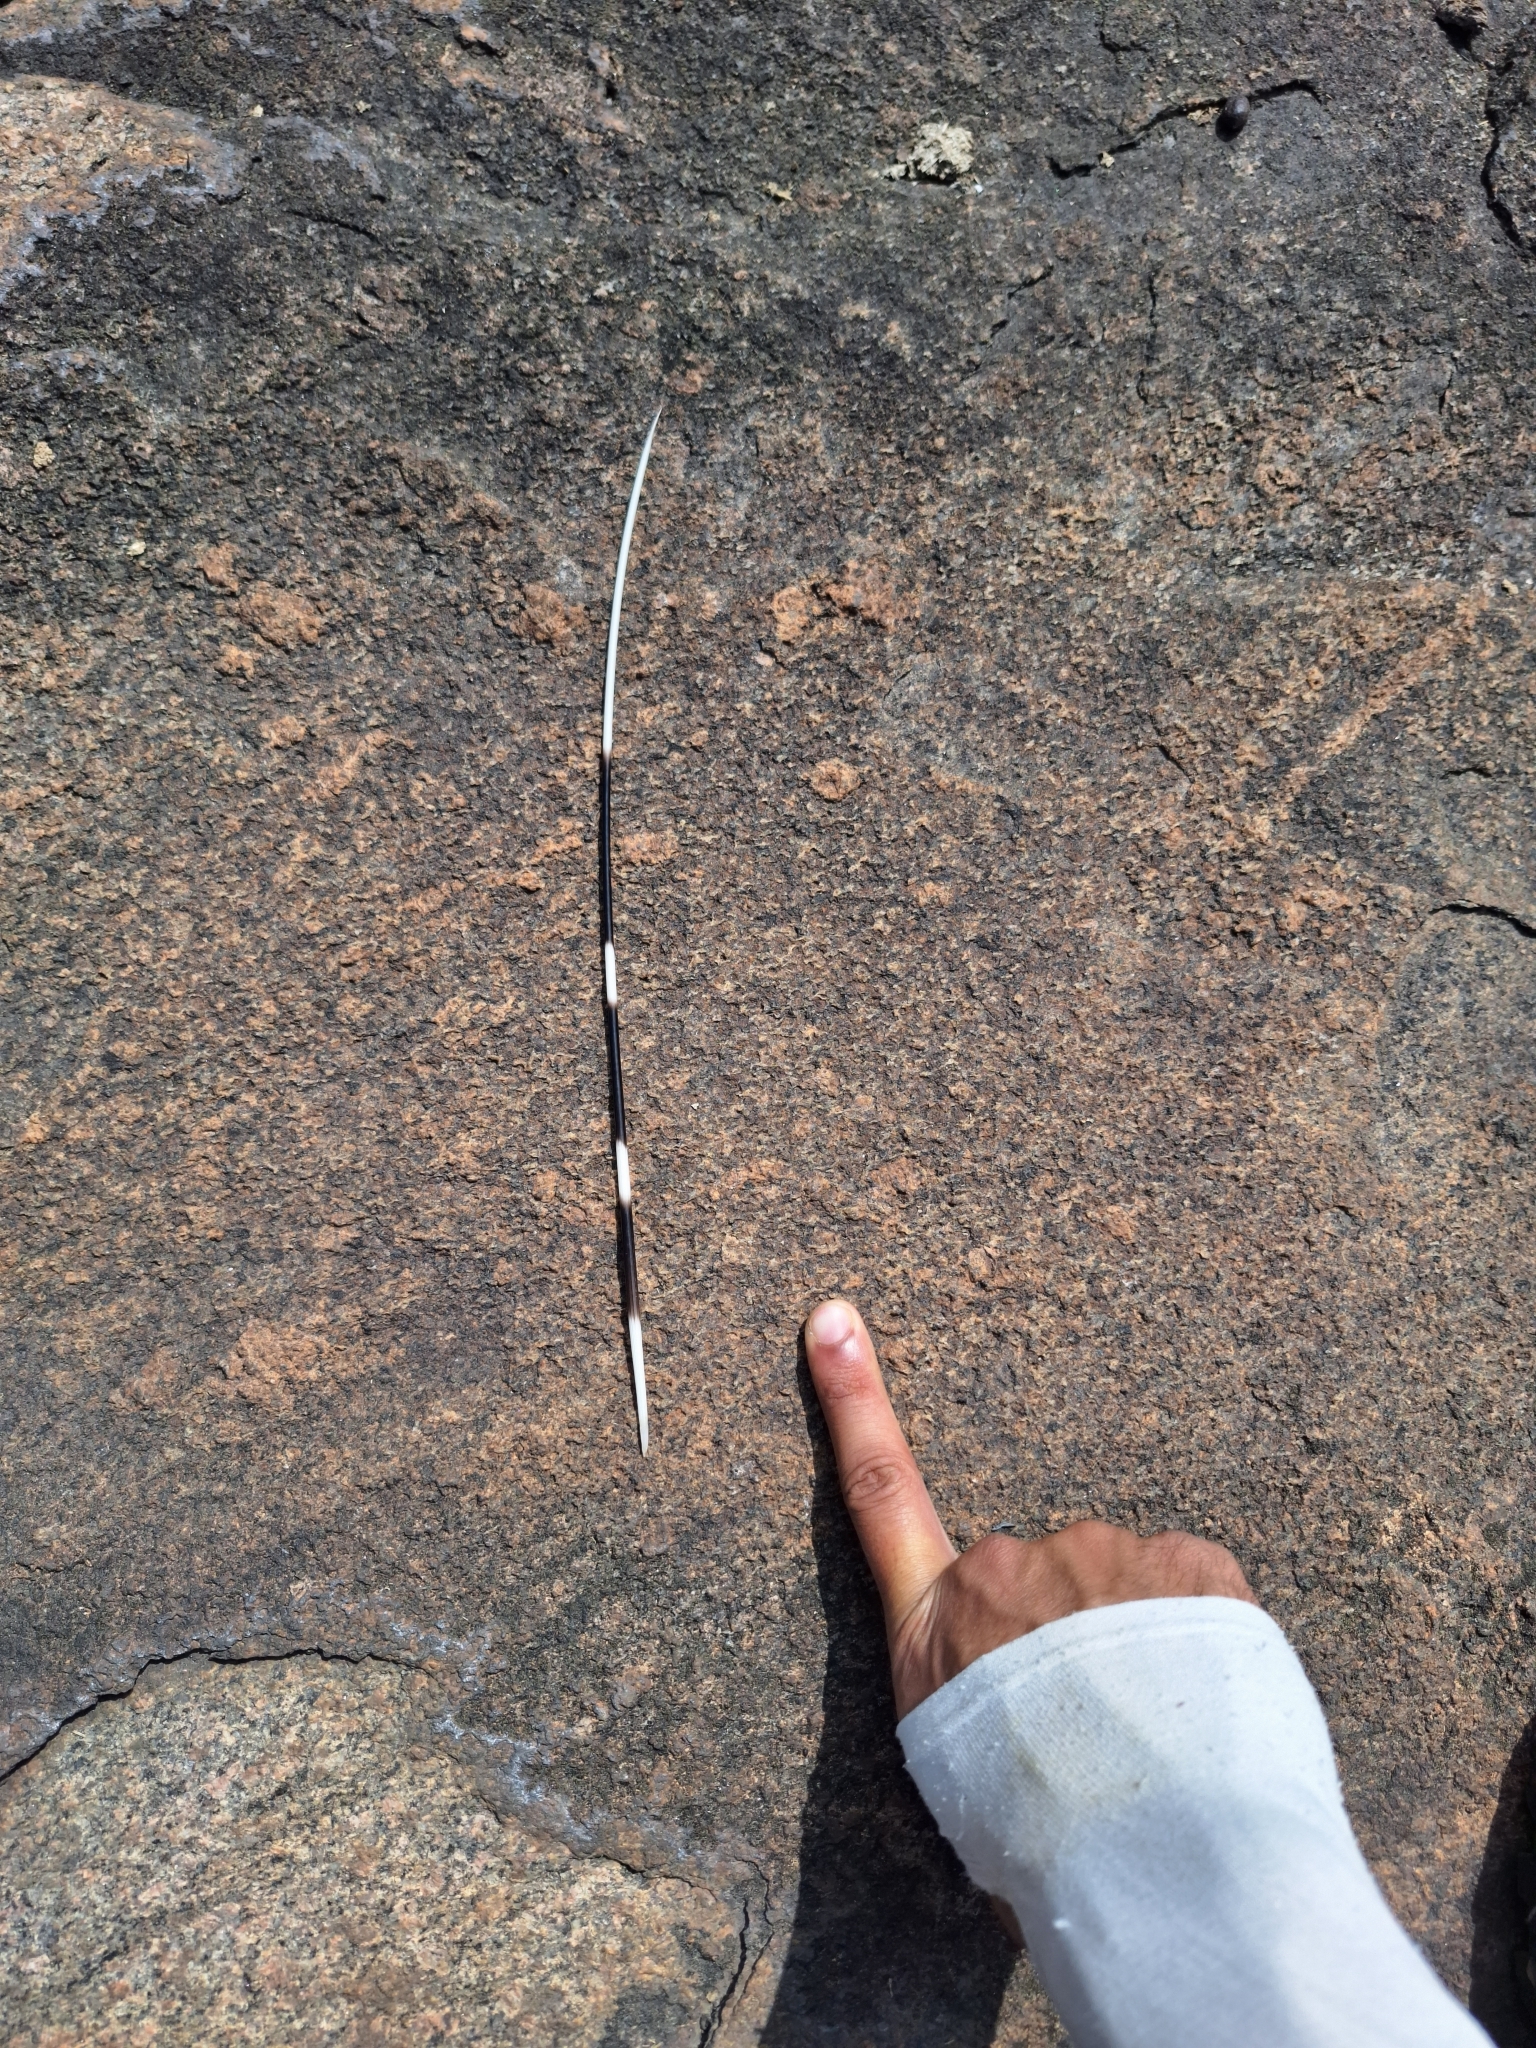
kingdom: Animalia
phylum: Chordata
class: Mammalia
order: Rodentia
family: Hystricidae
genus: Hystrix
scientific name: Hystrix indica
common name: Indian crested porcupine
